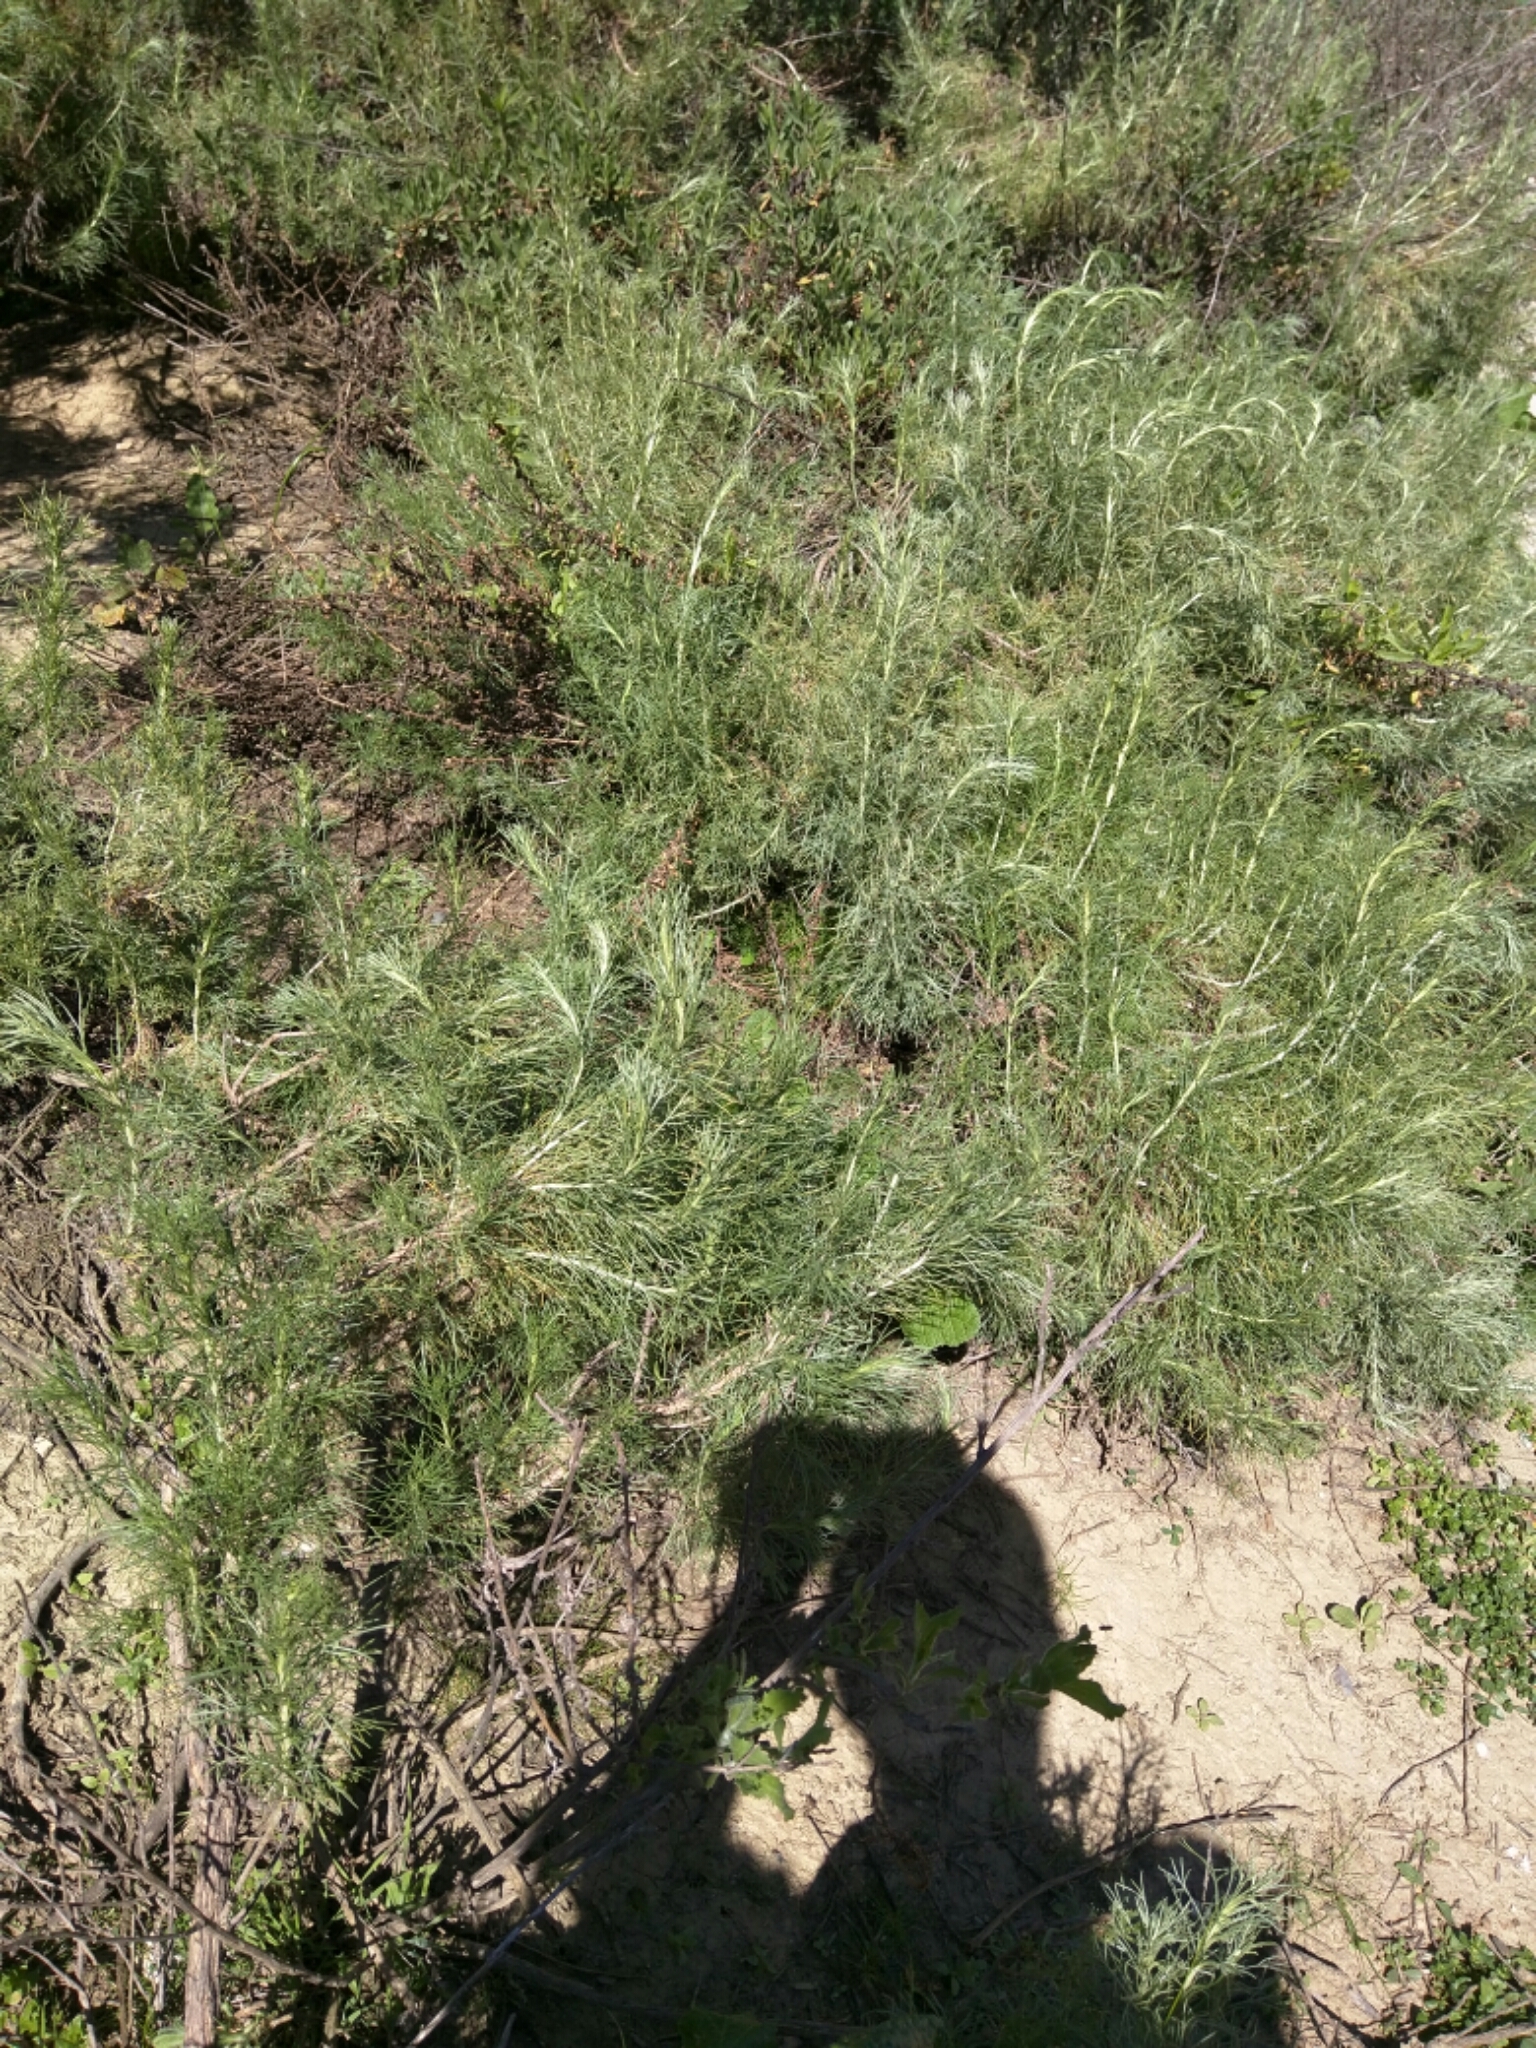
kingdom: Plantae
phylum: Tracheophyta
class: Magnoliopsida
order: Asterales
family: Asteraceae
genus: Artemisia
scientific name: Artemisia californica
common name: California sagebrush
